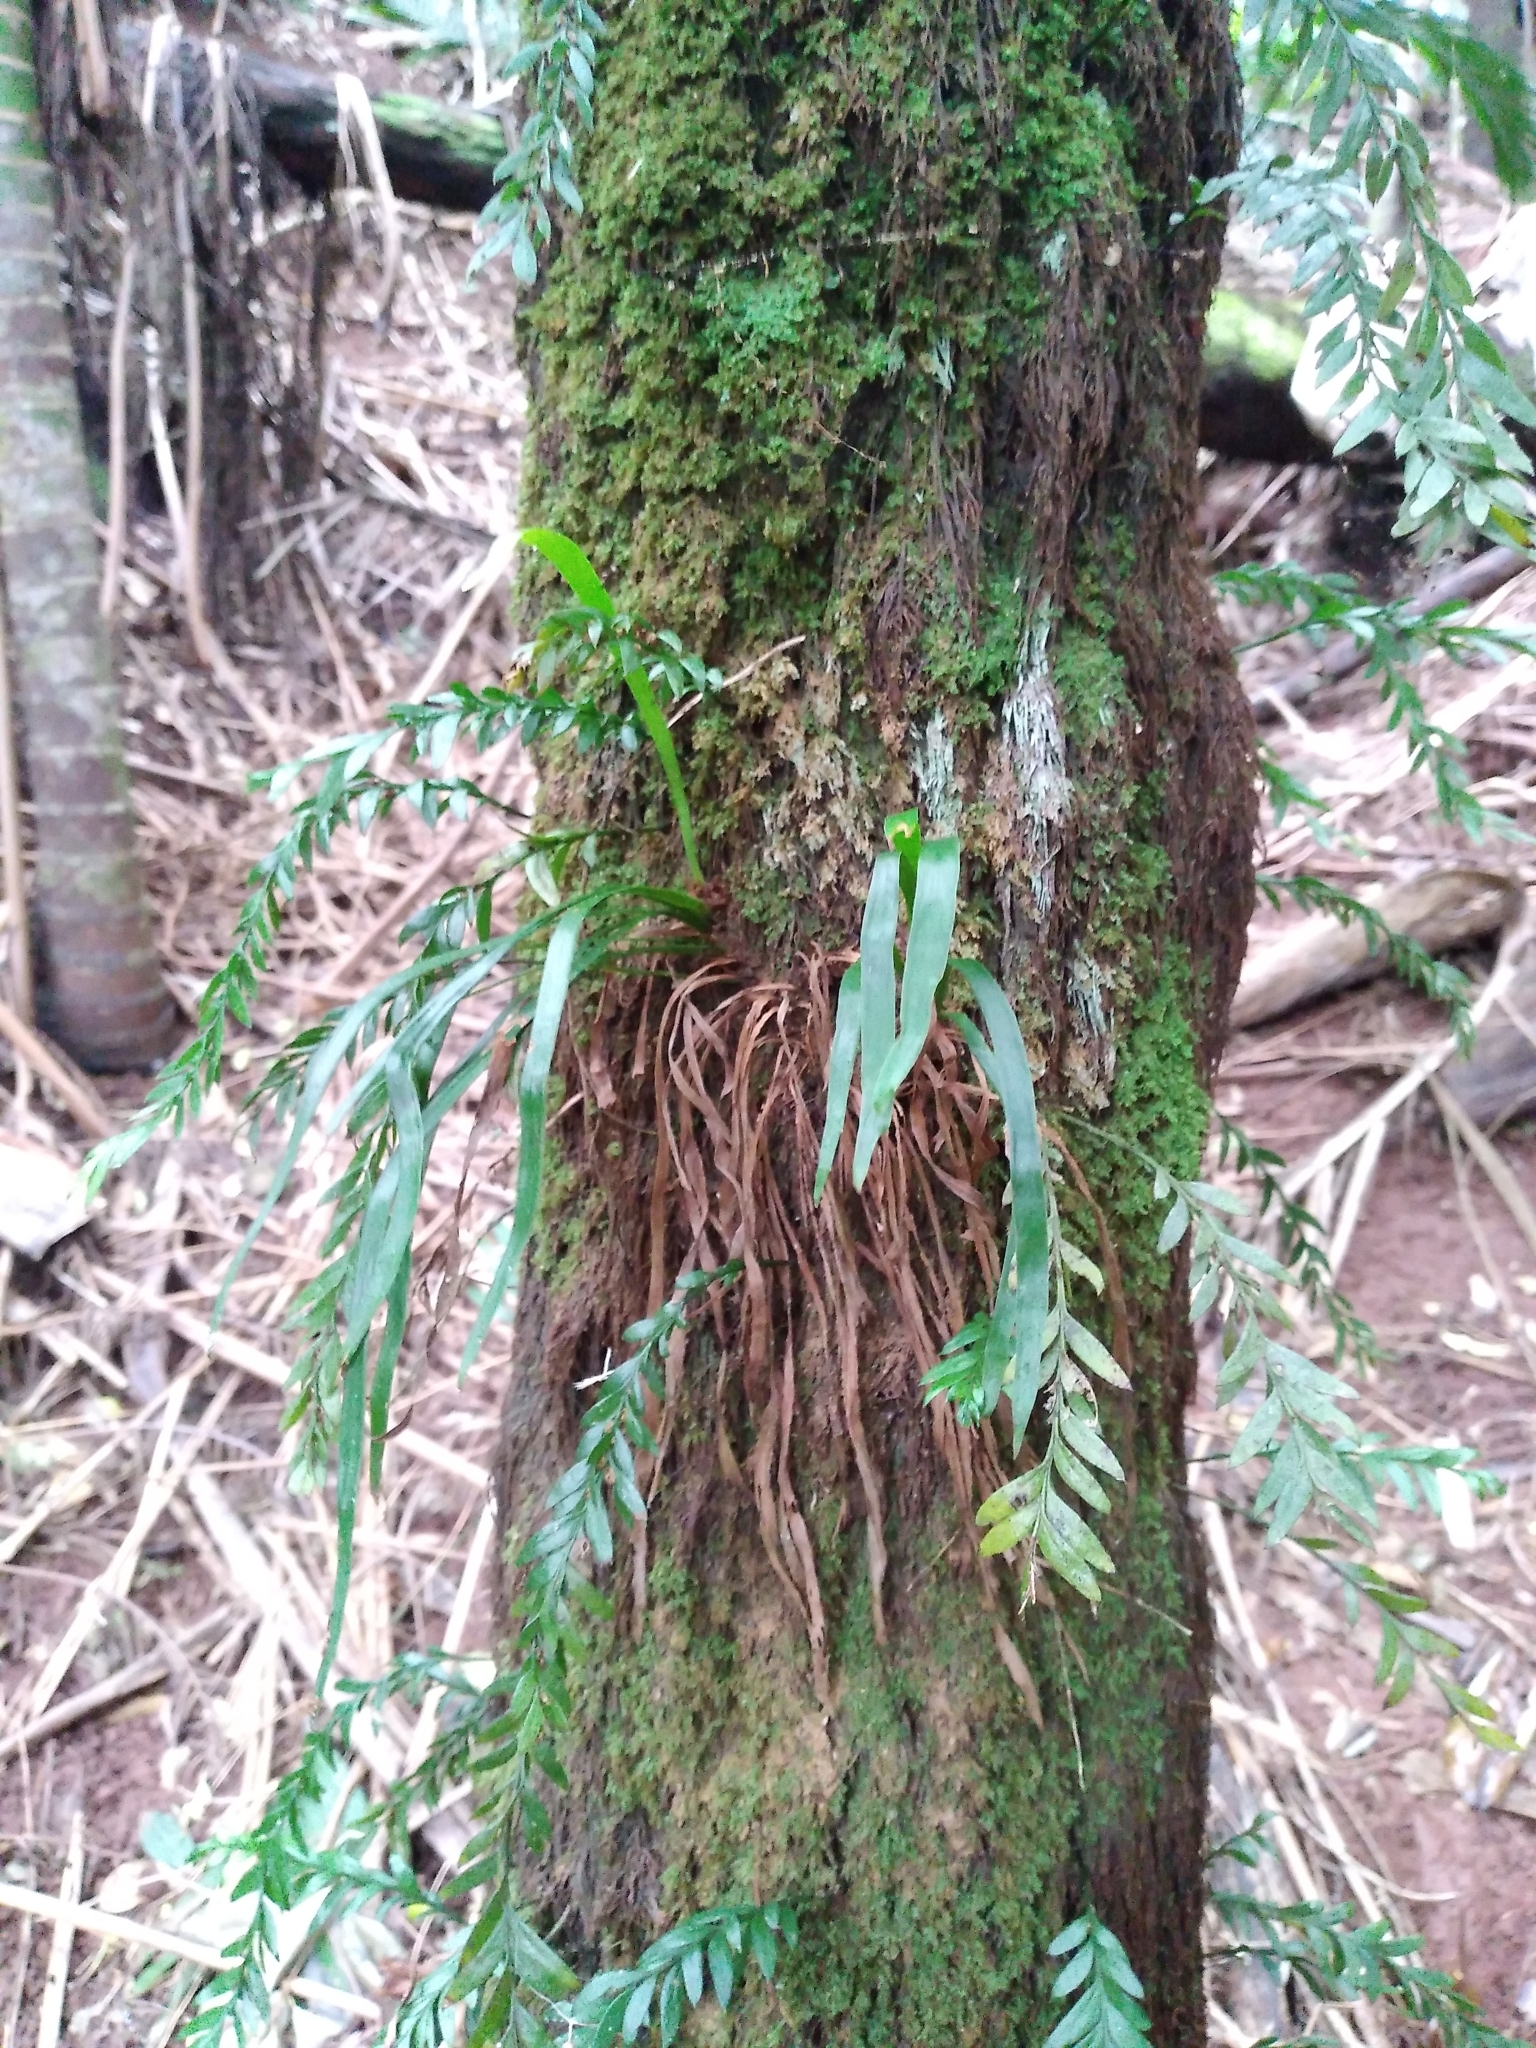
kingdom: Plantae
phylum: Tracheophyta
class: Polypodiopsida
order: Polypodiales
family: Pteridaceae
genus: Haplopteris
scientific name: Haplopteris elongata
